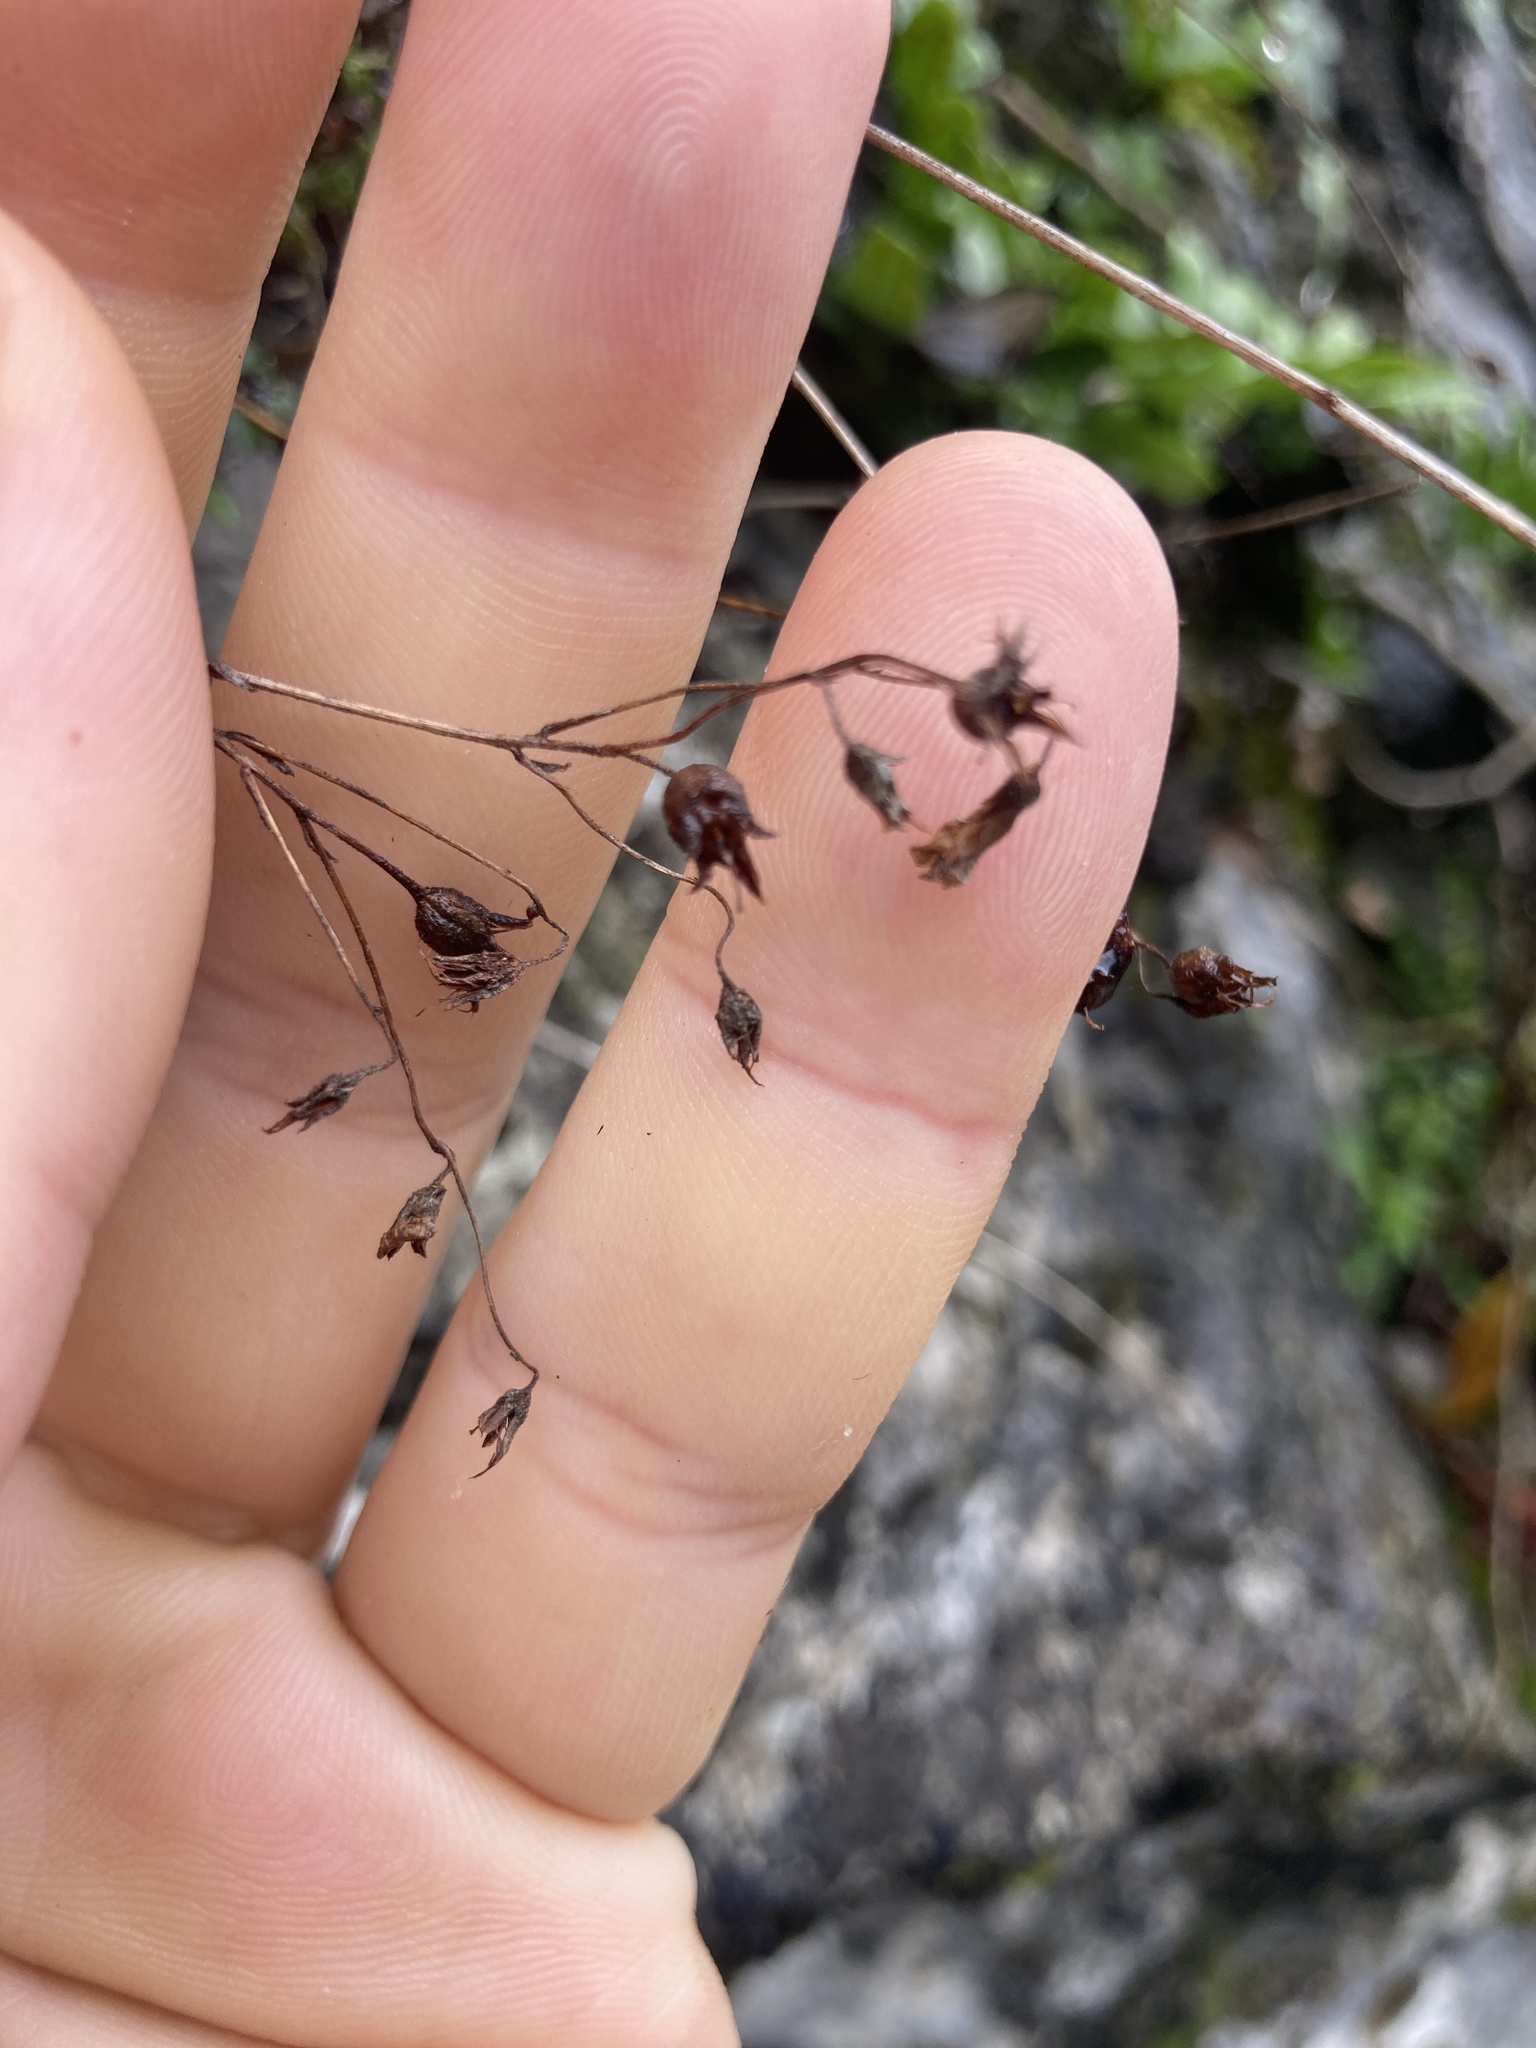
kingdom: Plantae
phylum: Tracheophyta
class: Magnoliopsida
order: Saxifragales
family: Saxifragaceae
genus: Saxifraga
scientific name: Saxifraga trifurcata
